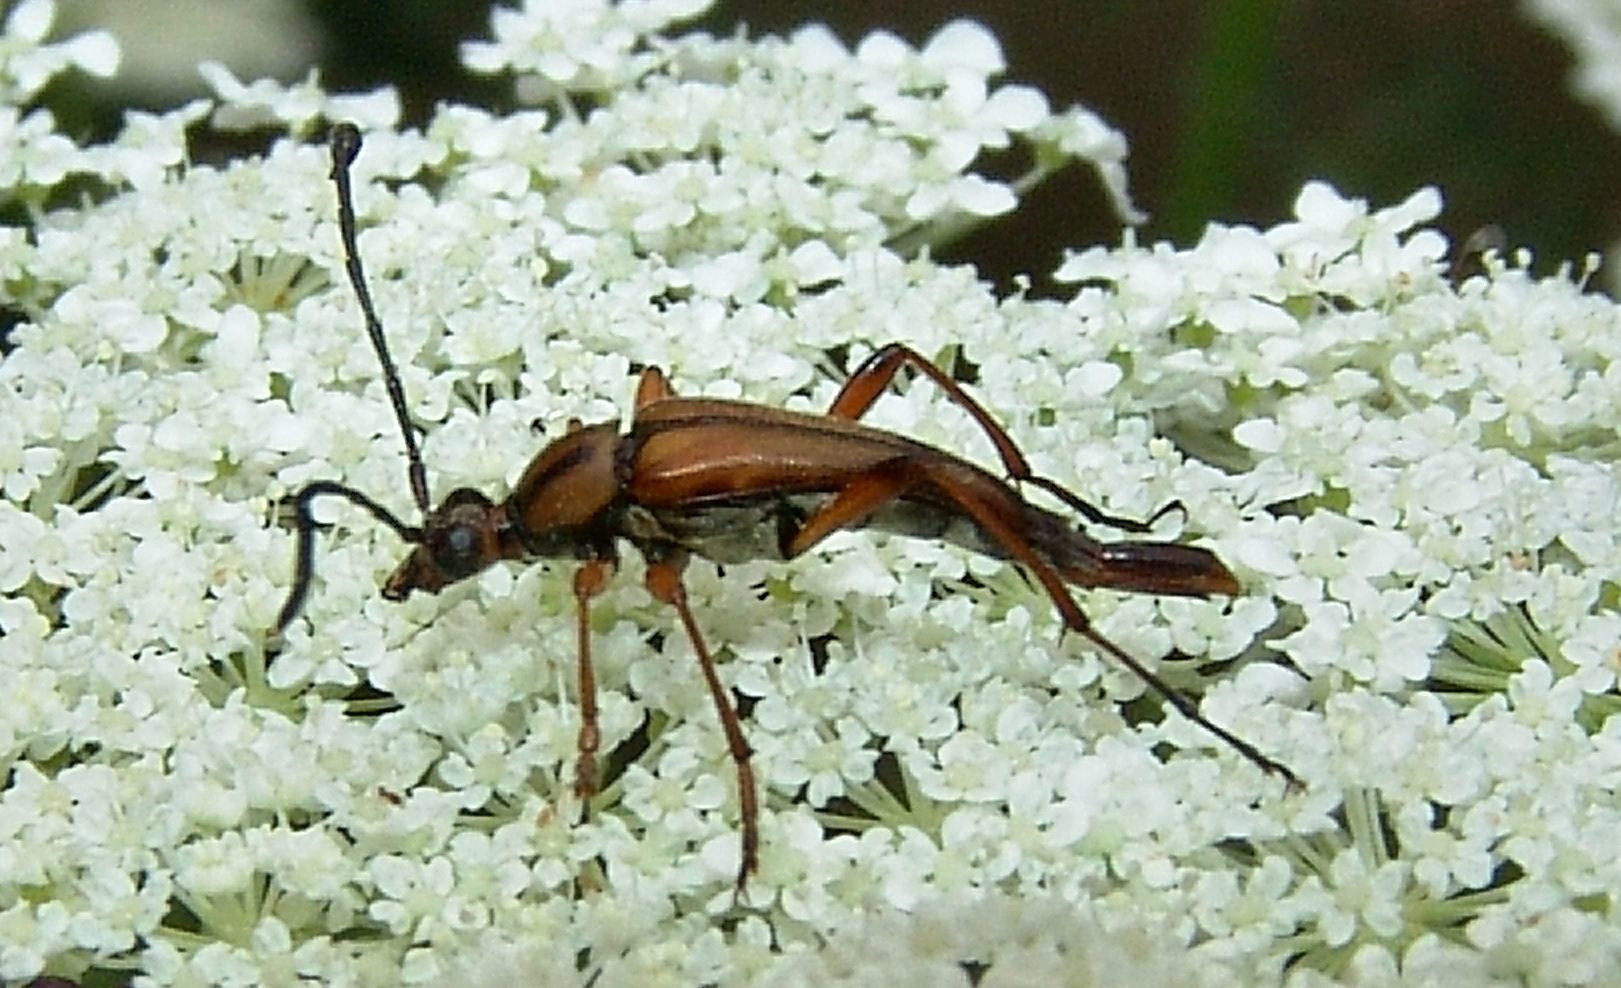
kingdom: Animalia
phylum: Arthropoda
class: Insecta
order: Coleoptera
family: Cerambycidae
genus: Strangalia
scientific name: Strangalia famelica
